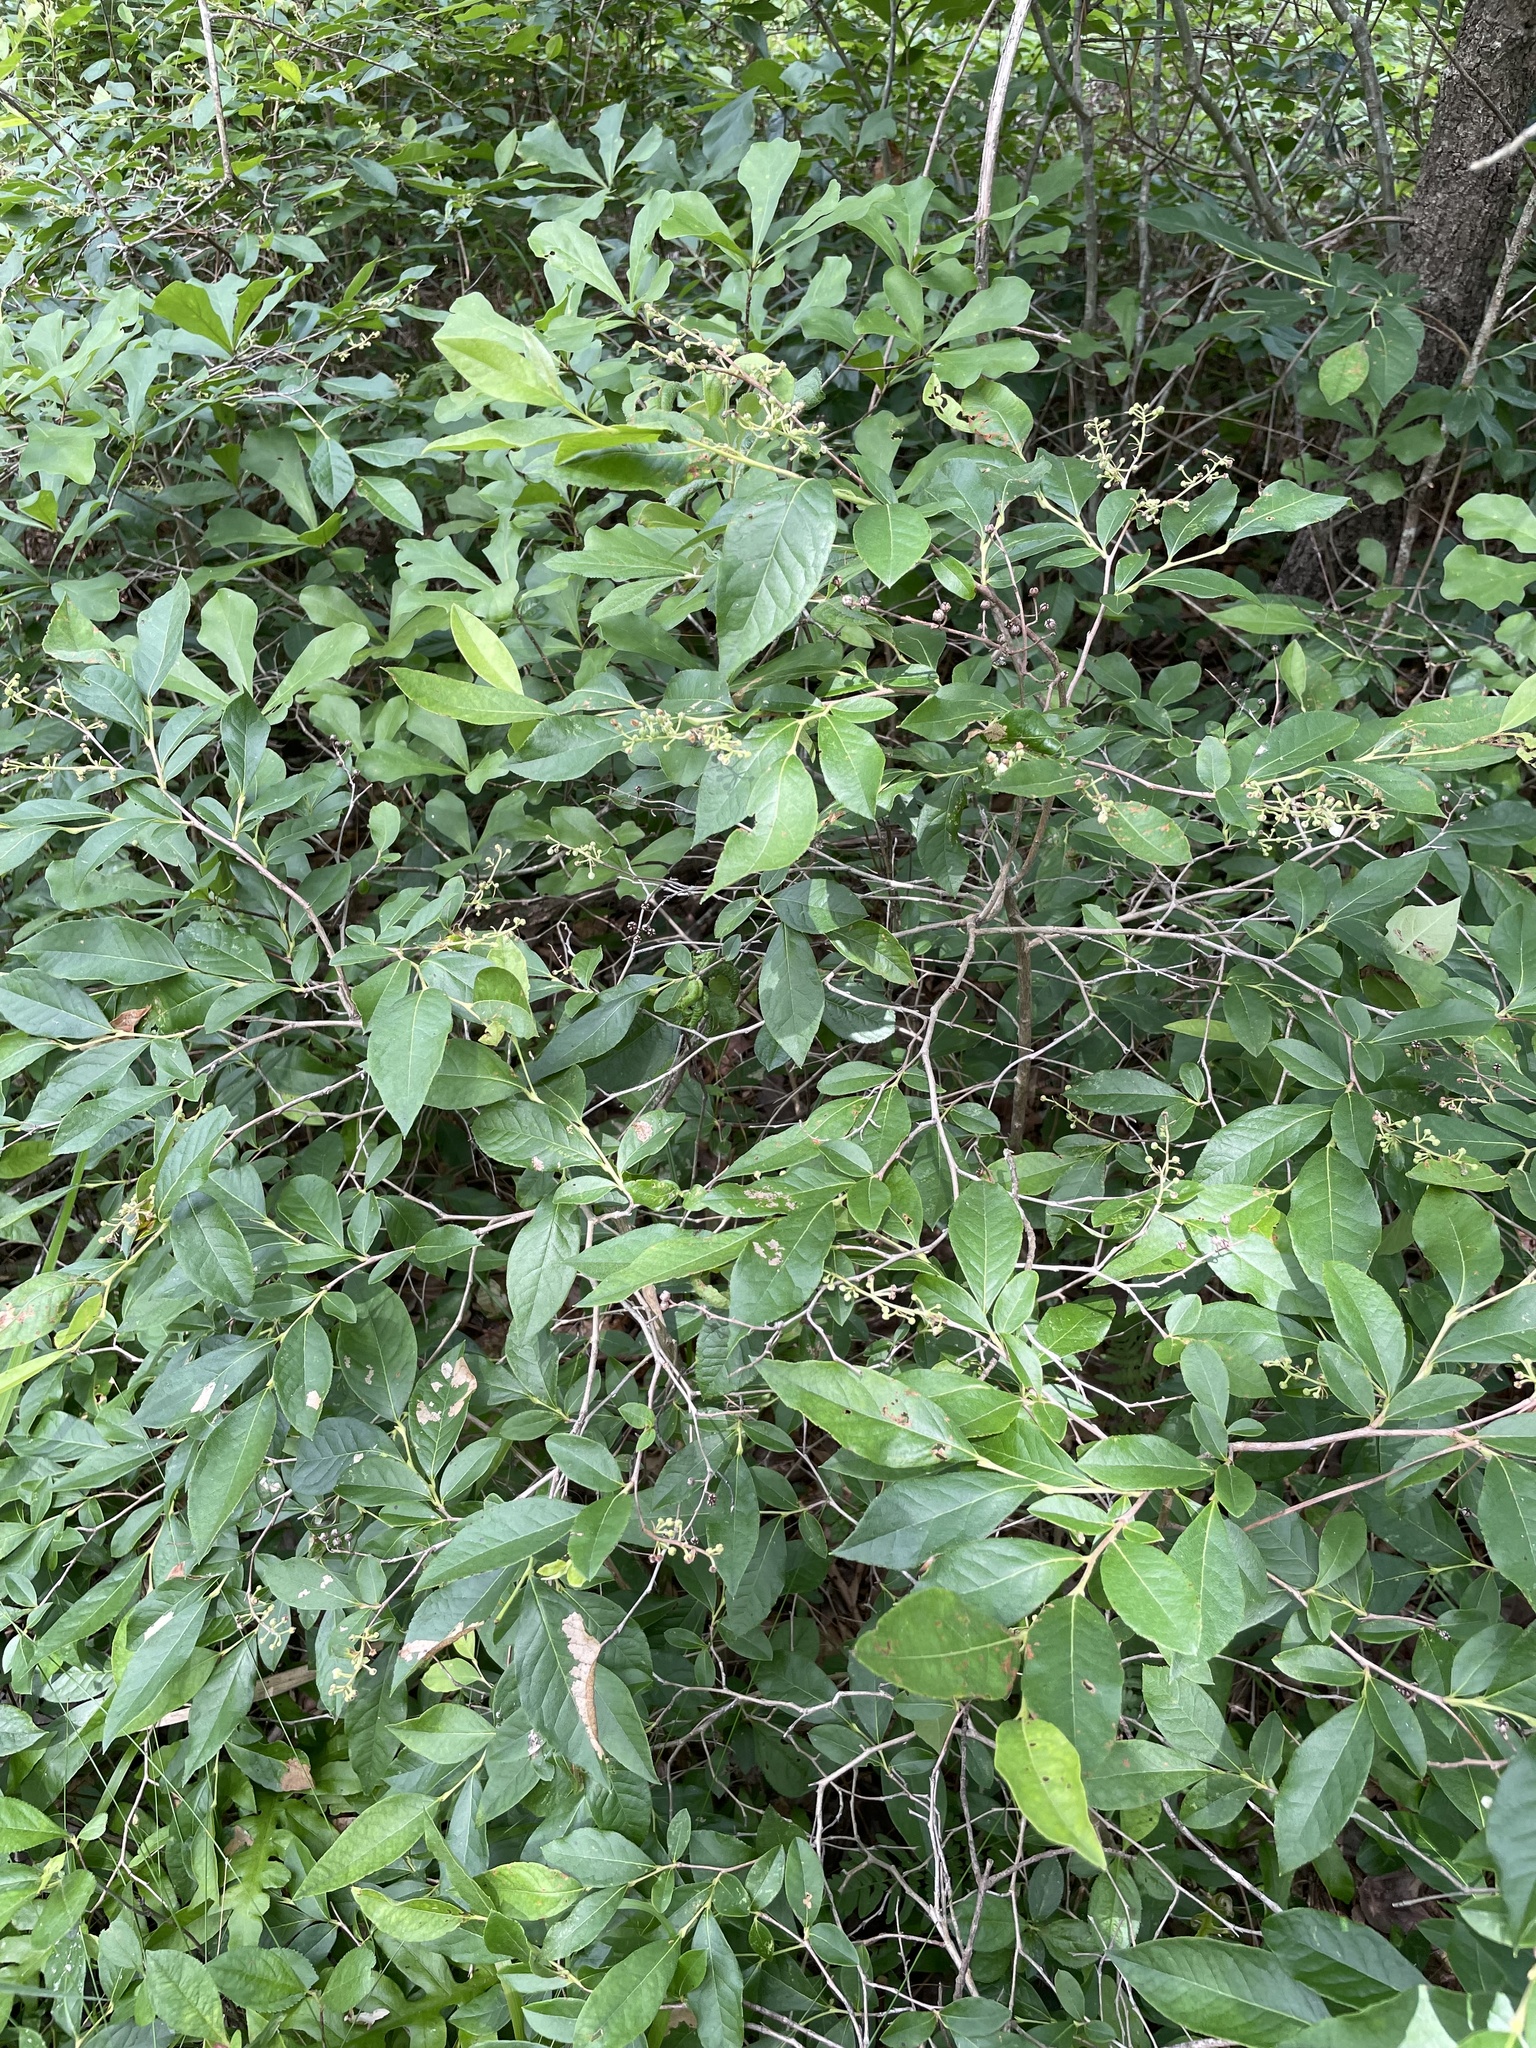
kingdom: Plantae
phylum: Tracheophyta
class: Magnoliopsida
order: Ericales
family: Ericaceae
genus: Lyonia
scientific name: Lyonia ligustrina
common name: Maleberry
